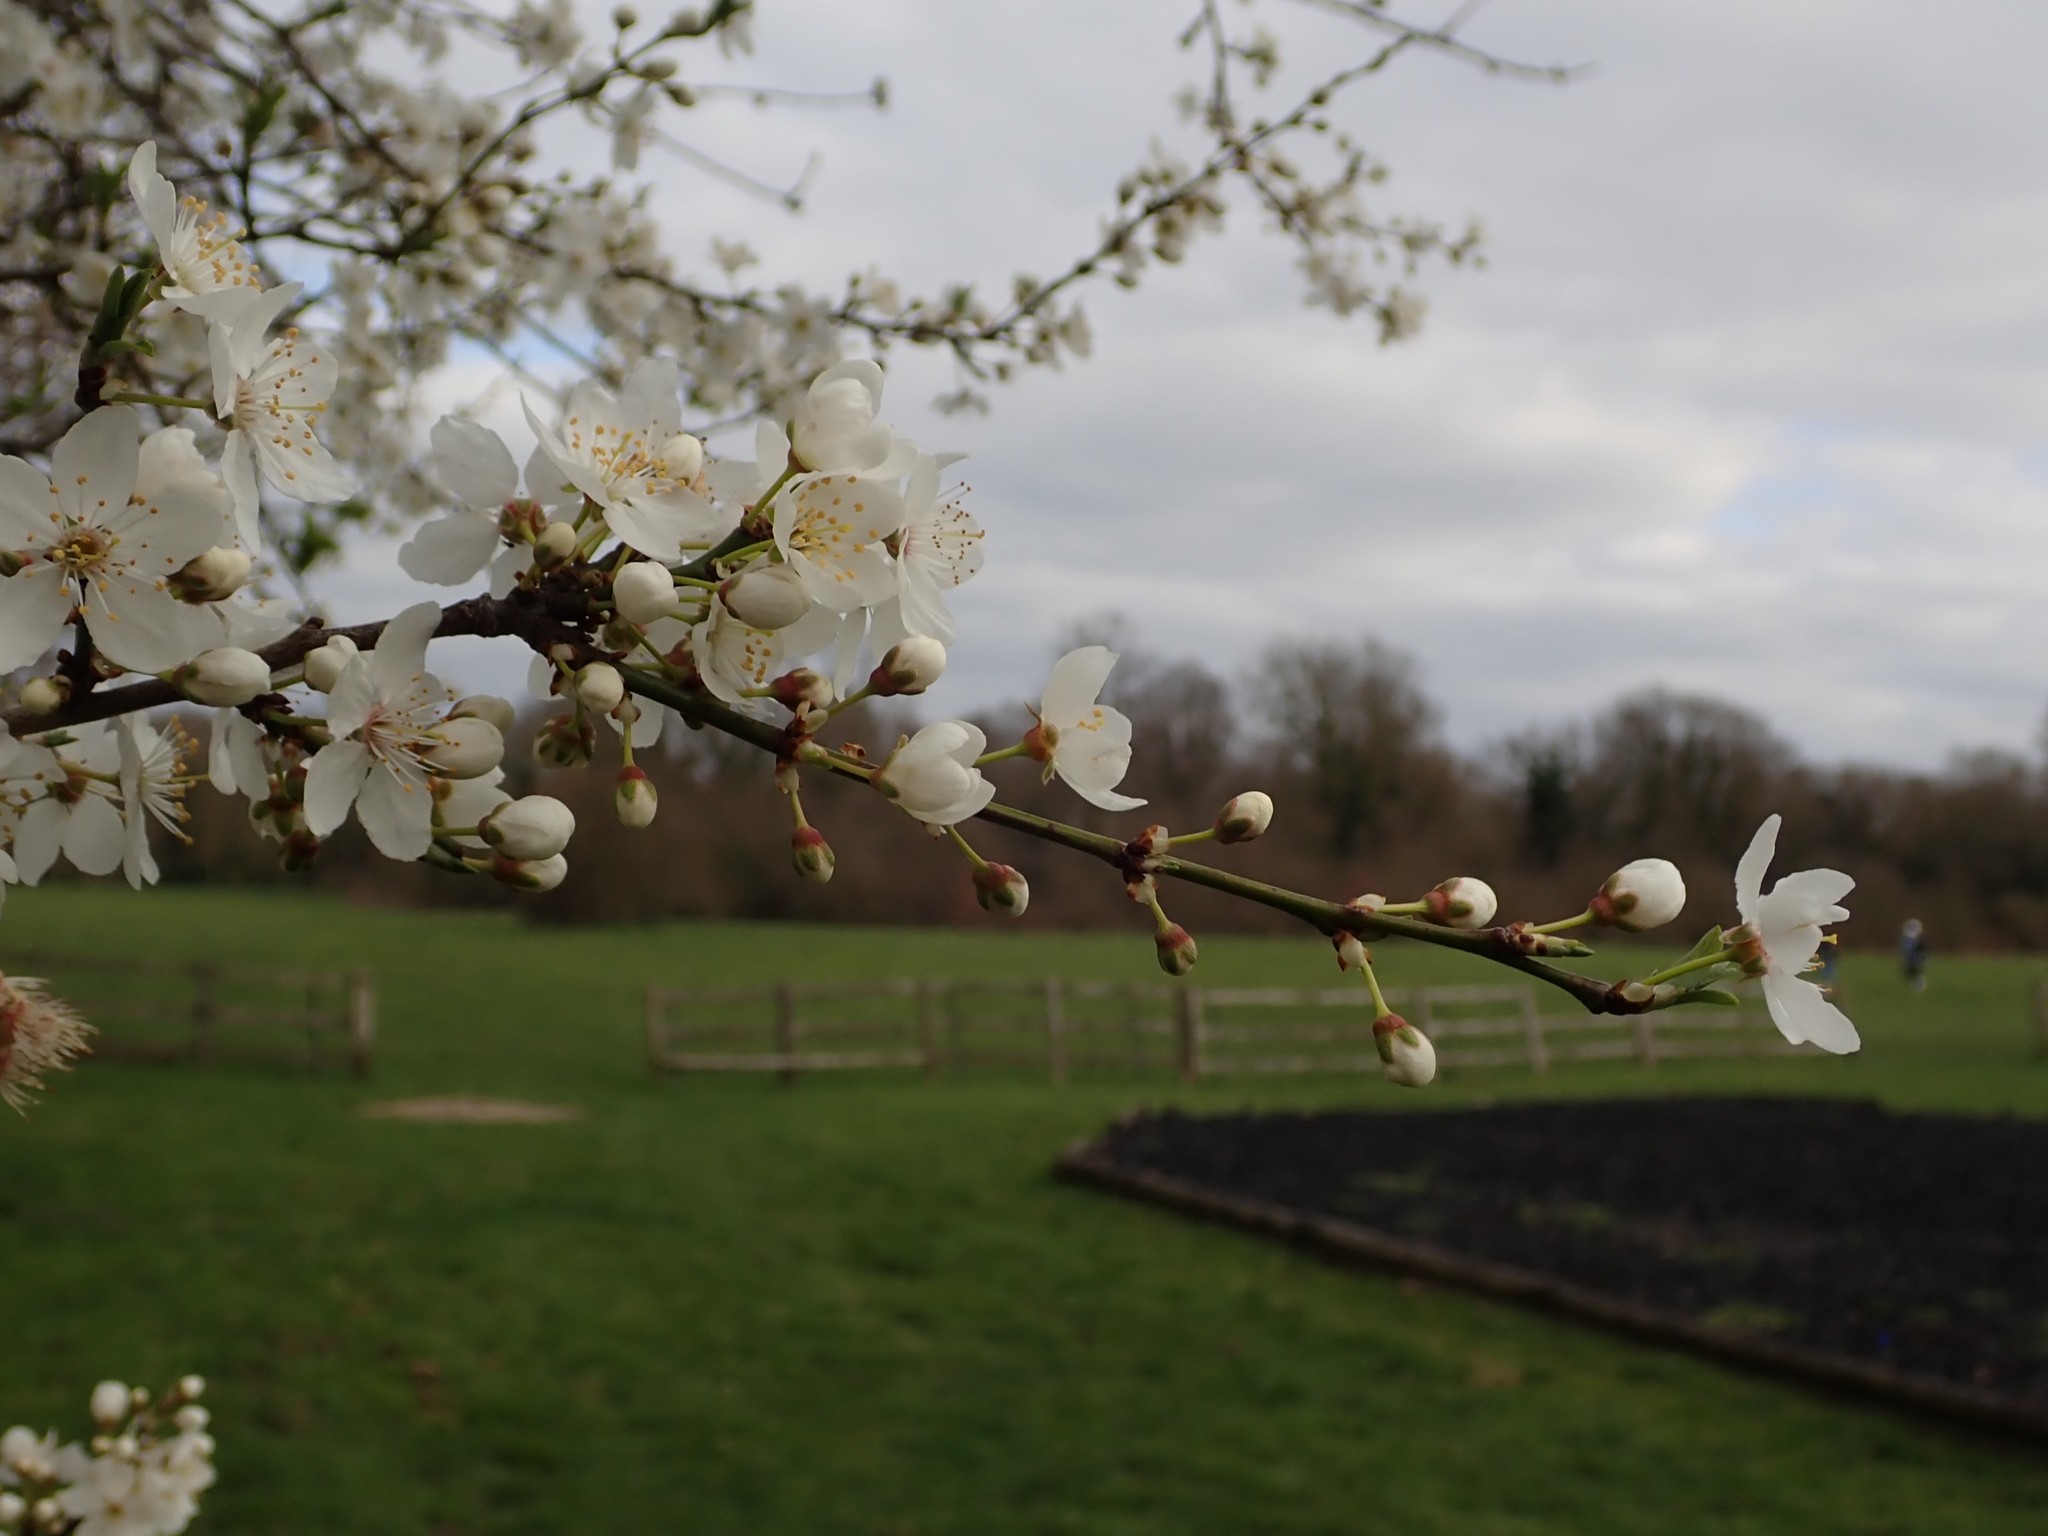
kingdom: Plantae
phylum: Tracheophyta
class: Magnoliopsida
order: Rosales
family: Rosaceae
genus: Prunus
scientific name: Prunus cerasifera
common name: Cherry plum
